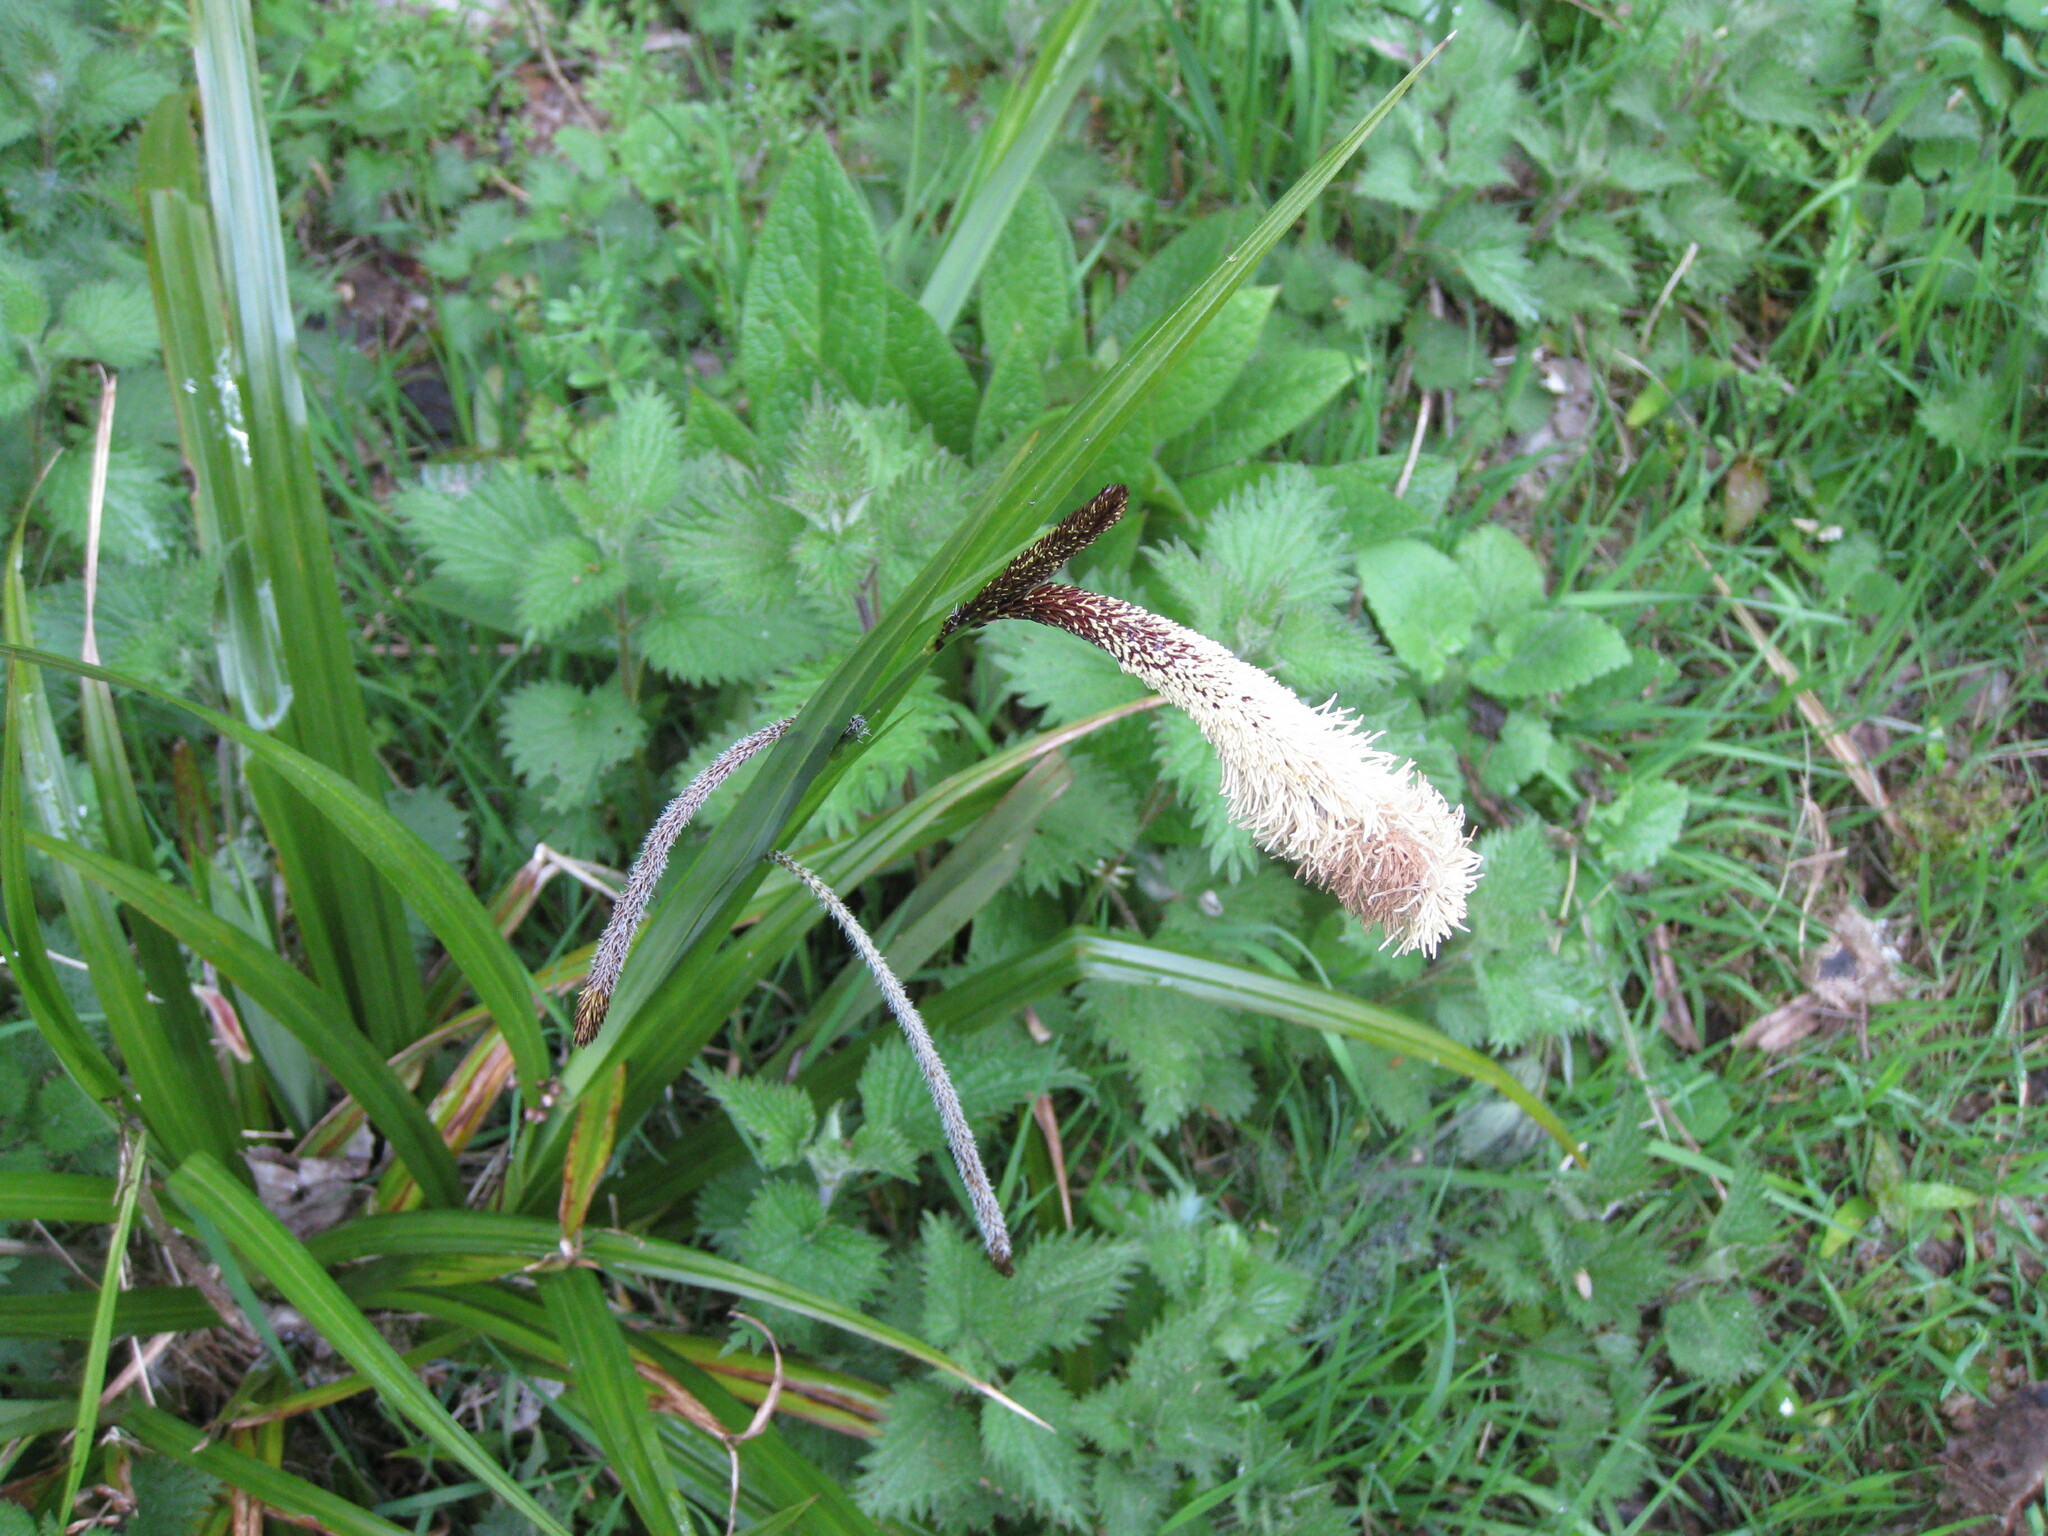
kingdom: Plantae
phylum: Tracheophyta
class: Liliopsida
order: Poales
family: Cyperaceae
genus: Carex
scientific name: Carex pendula
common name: Pendulous sedge
